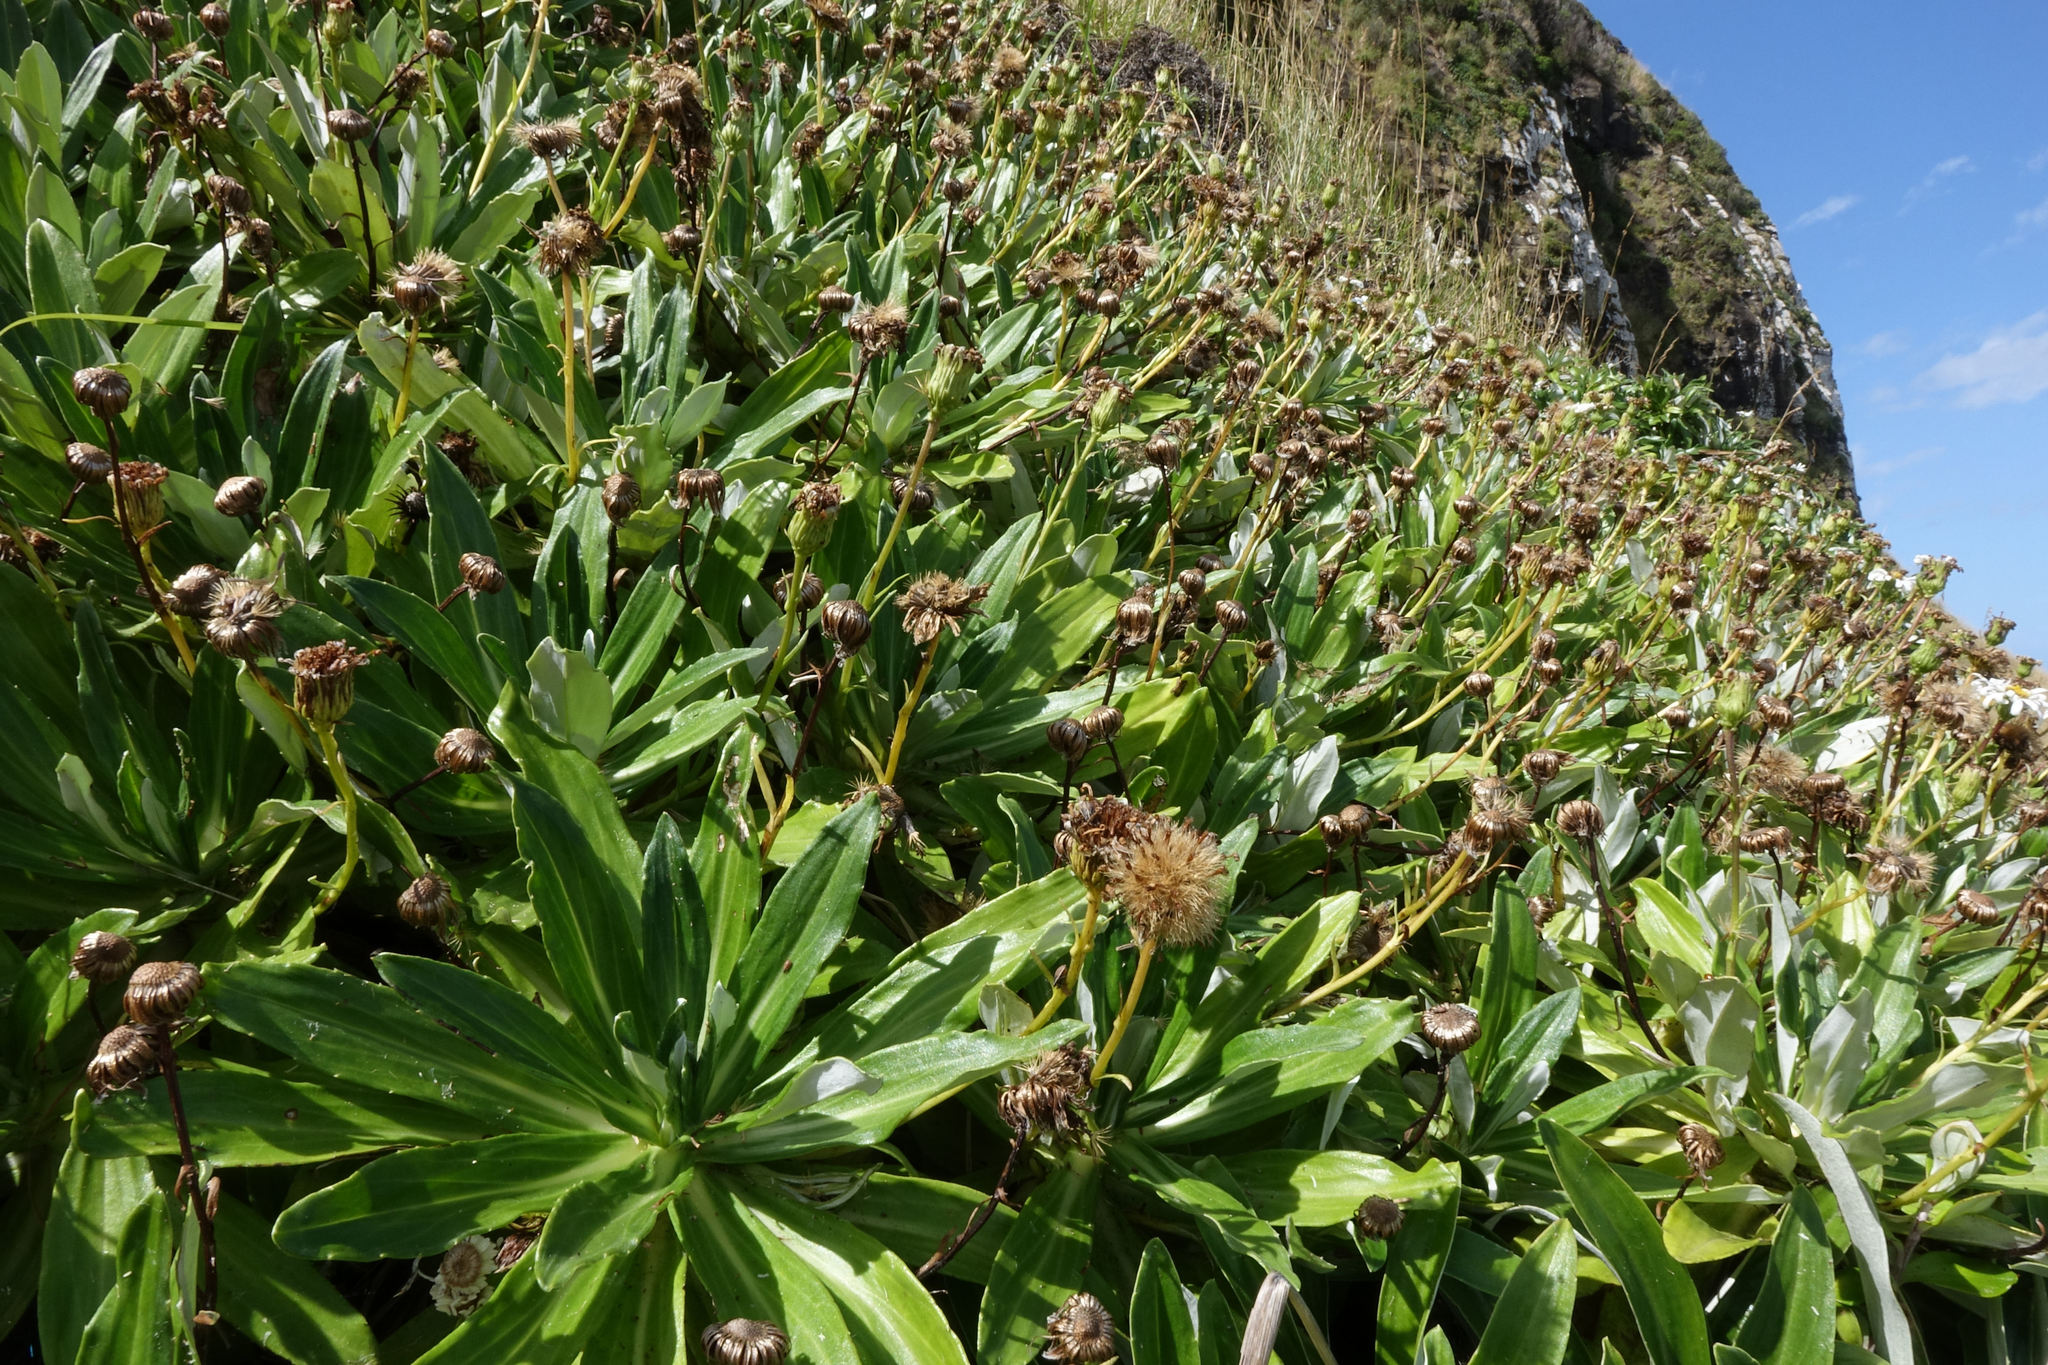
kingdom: Plantae
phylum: Tracheophyta
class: Magnoliopsida
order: Asterales
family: Asteraceae
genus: Celmisia
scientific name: Celmisia lindsayi
